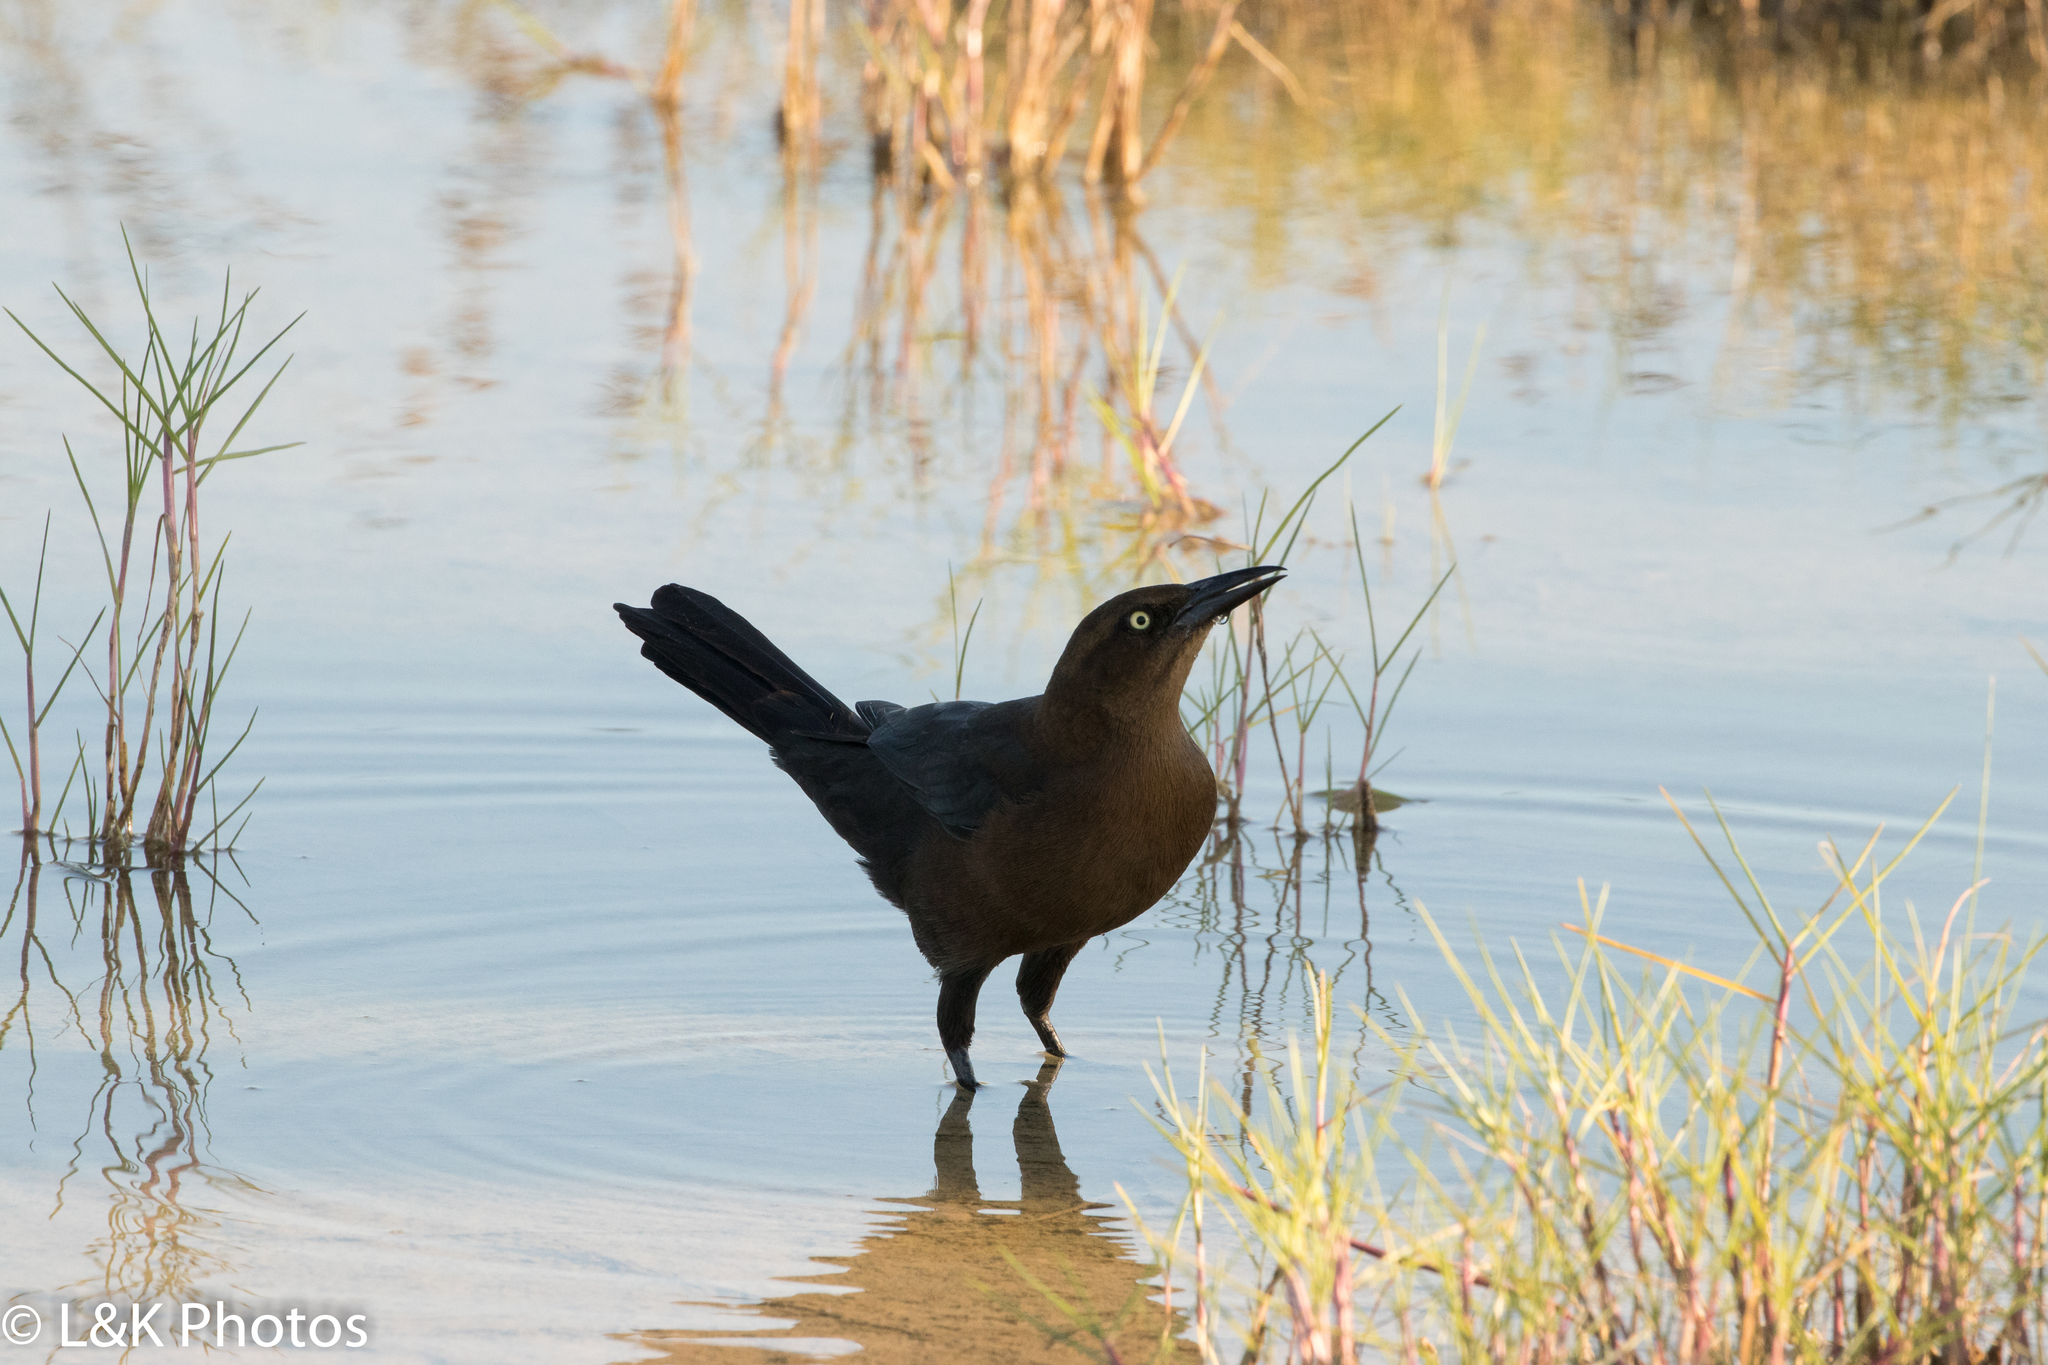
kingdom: Animalia
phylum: Chordata
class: Aves
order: Passeriformes
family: Icteridae
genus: Quiscalus
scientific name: Quiscalus mexicanus
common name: Great-tailed grackle
